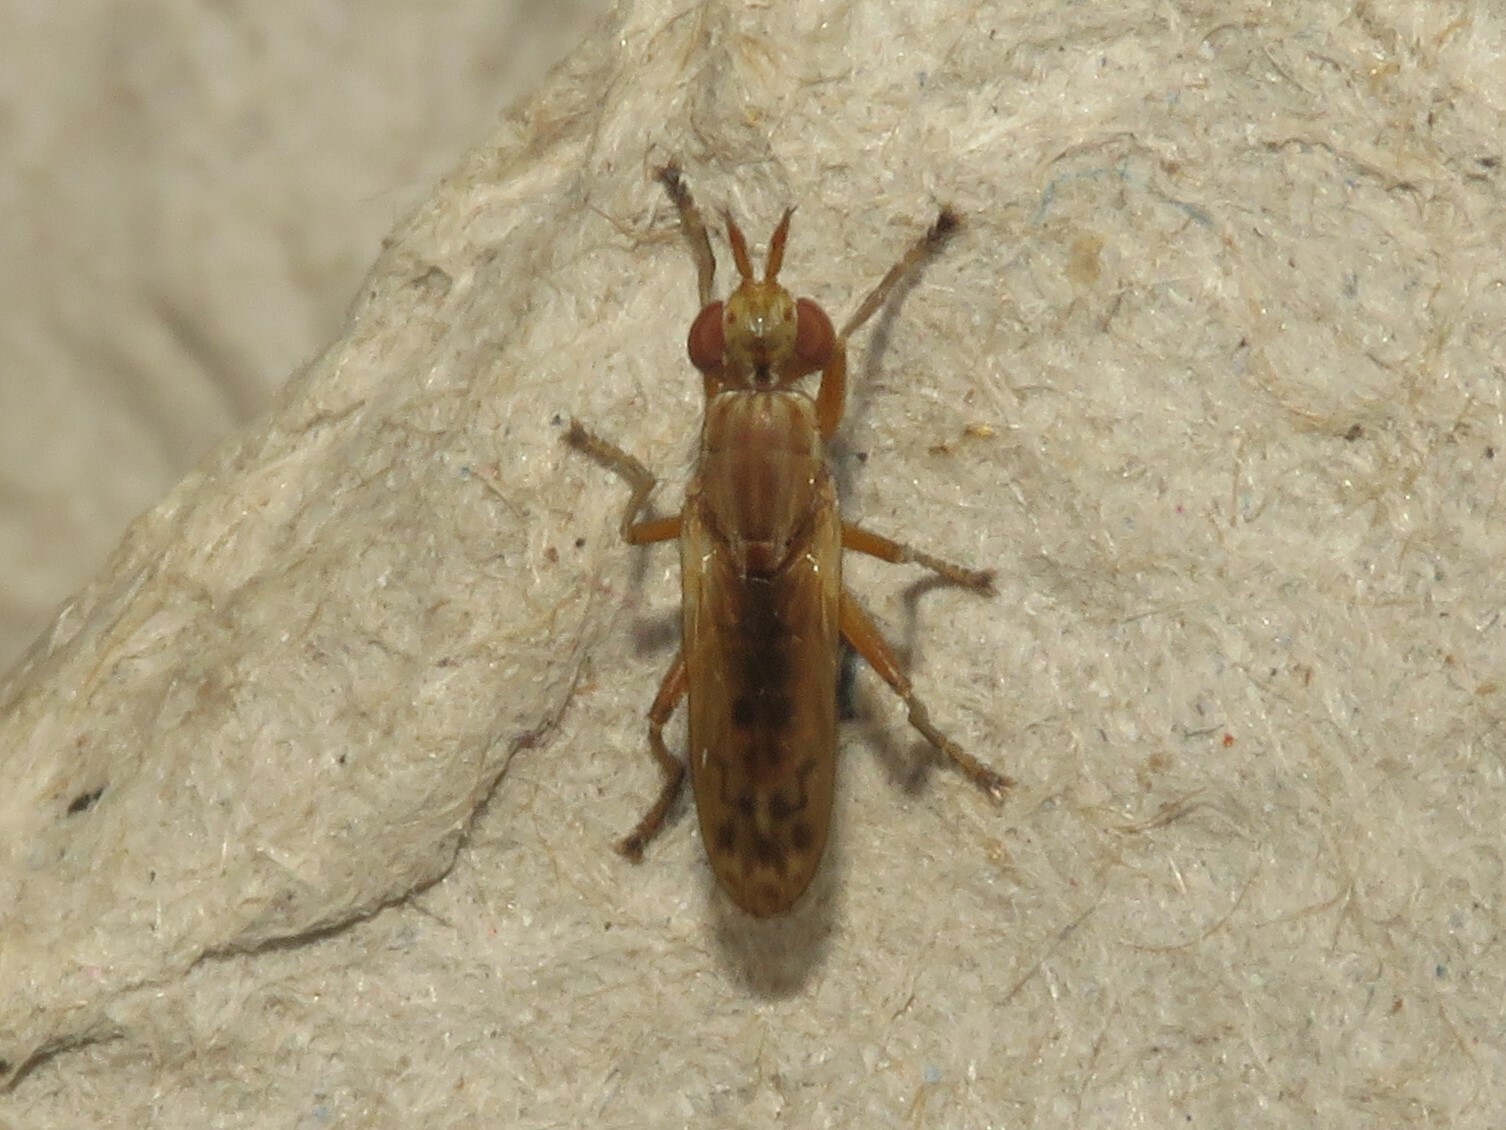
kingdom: Animalia
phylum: Arthropoda
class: Insecta
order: Diptera
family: Sciomyzidae
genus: Elgiva
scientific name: Elgiva solicita
